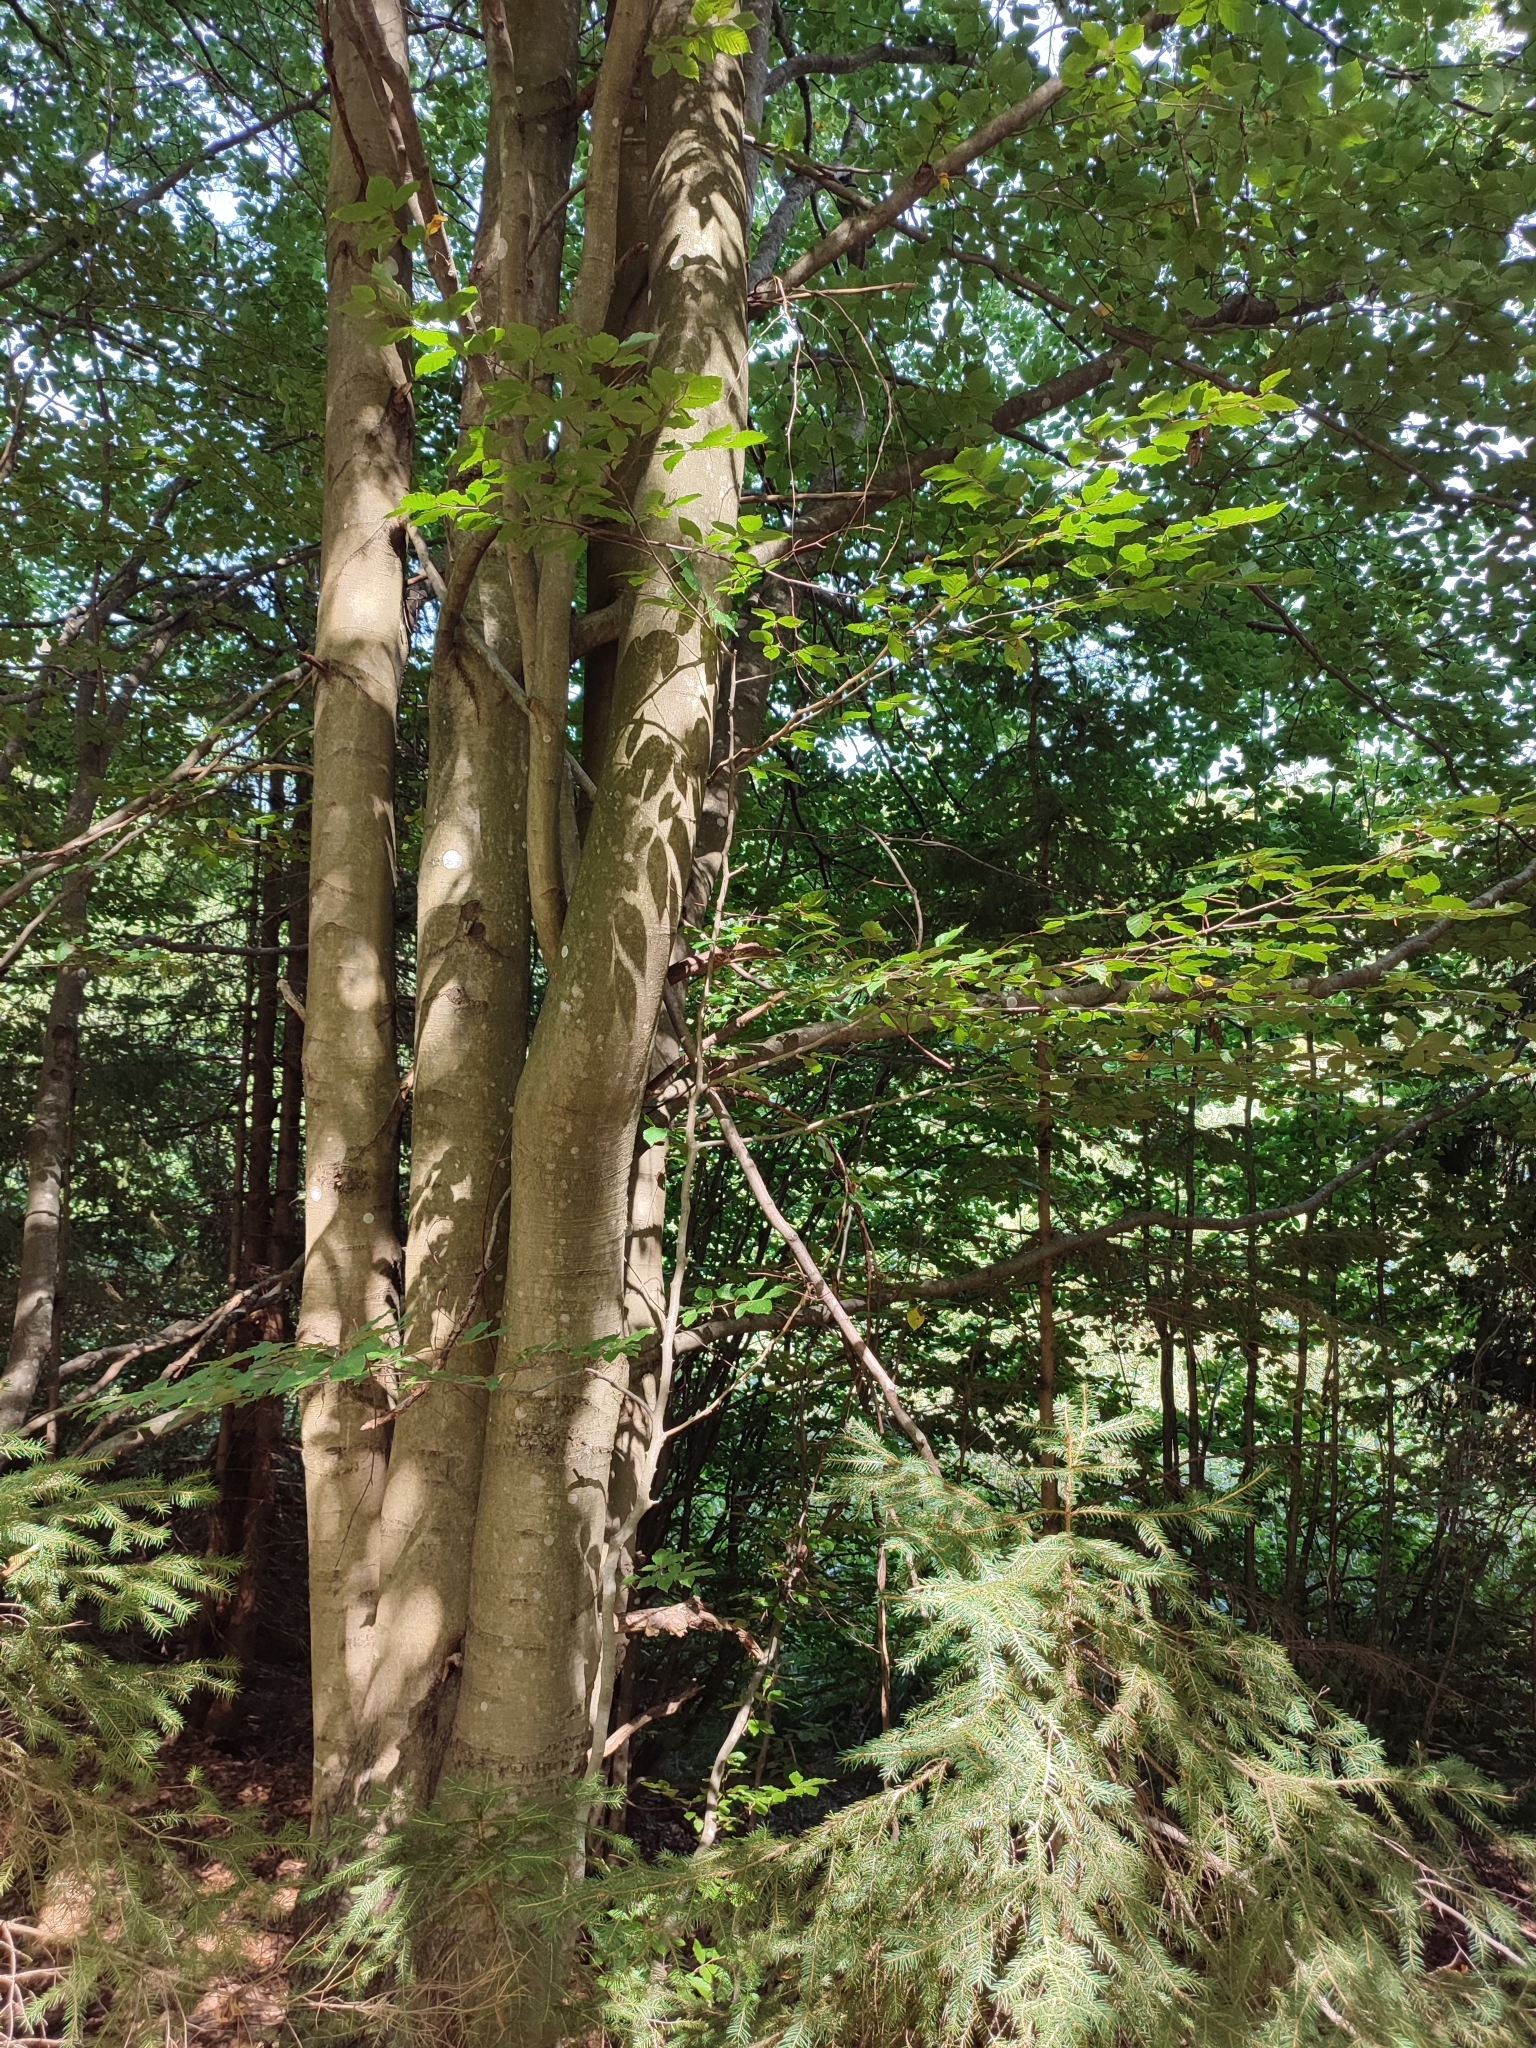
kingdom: Plantae
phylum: Tracheophyta
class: Magnoliopsida
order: Fagales
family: Fagaceae
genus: Fagus
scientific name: Fagus sylvatica
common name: Beech
